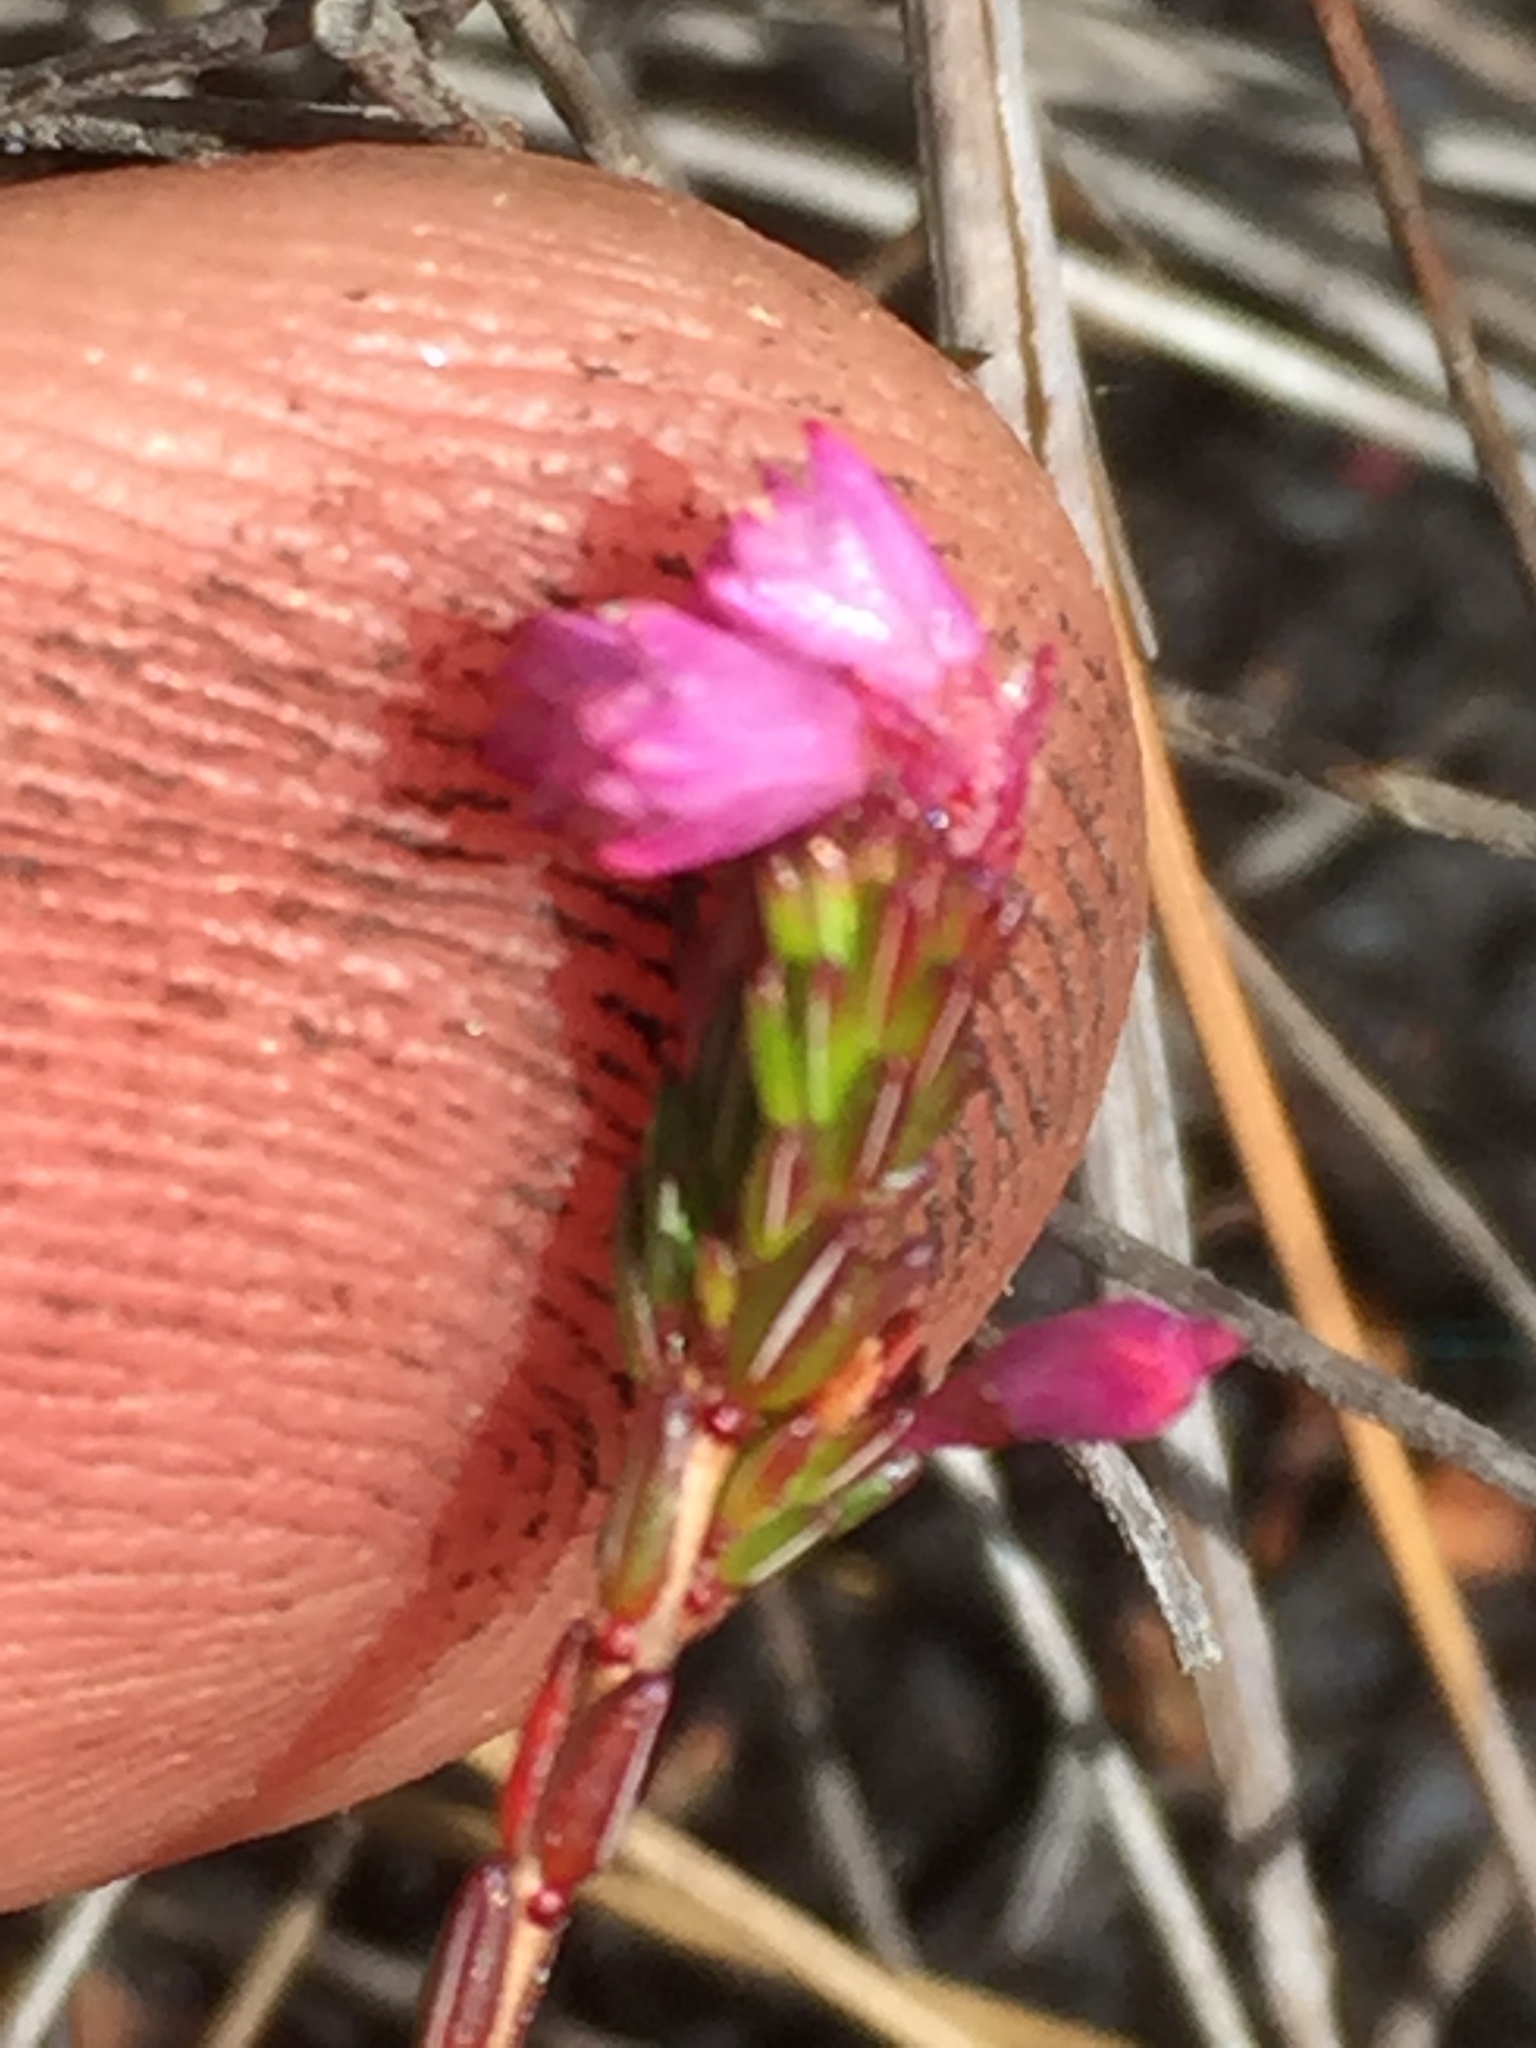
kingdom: Plantae
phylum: Tracheophyta
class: Magnoliopsida
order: Ericales
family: Ericaceae
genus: Erica
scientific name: Erica gnaphaloides
